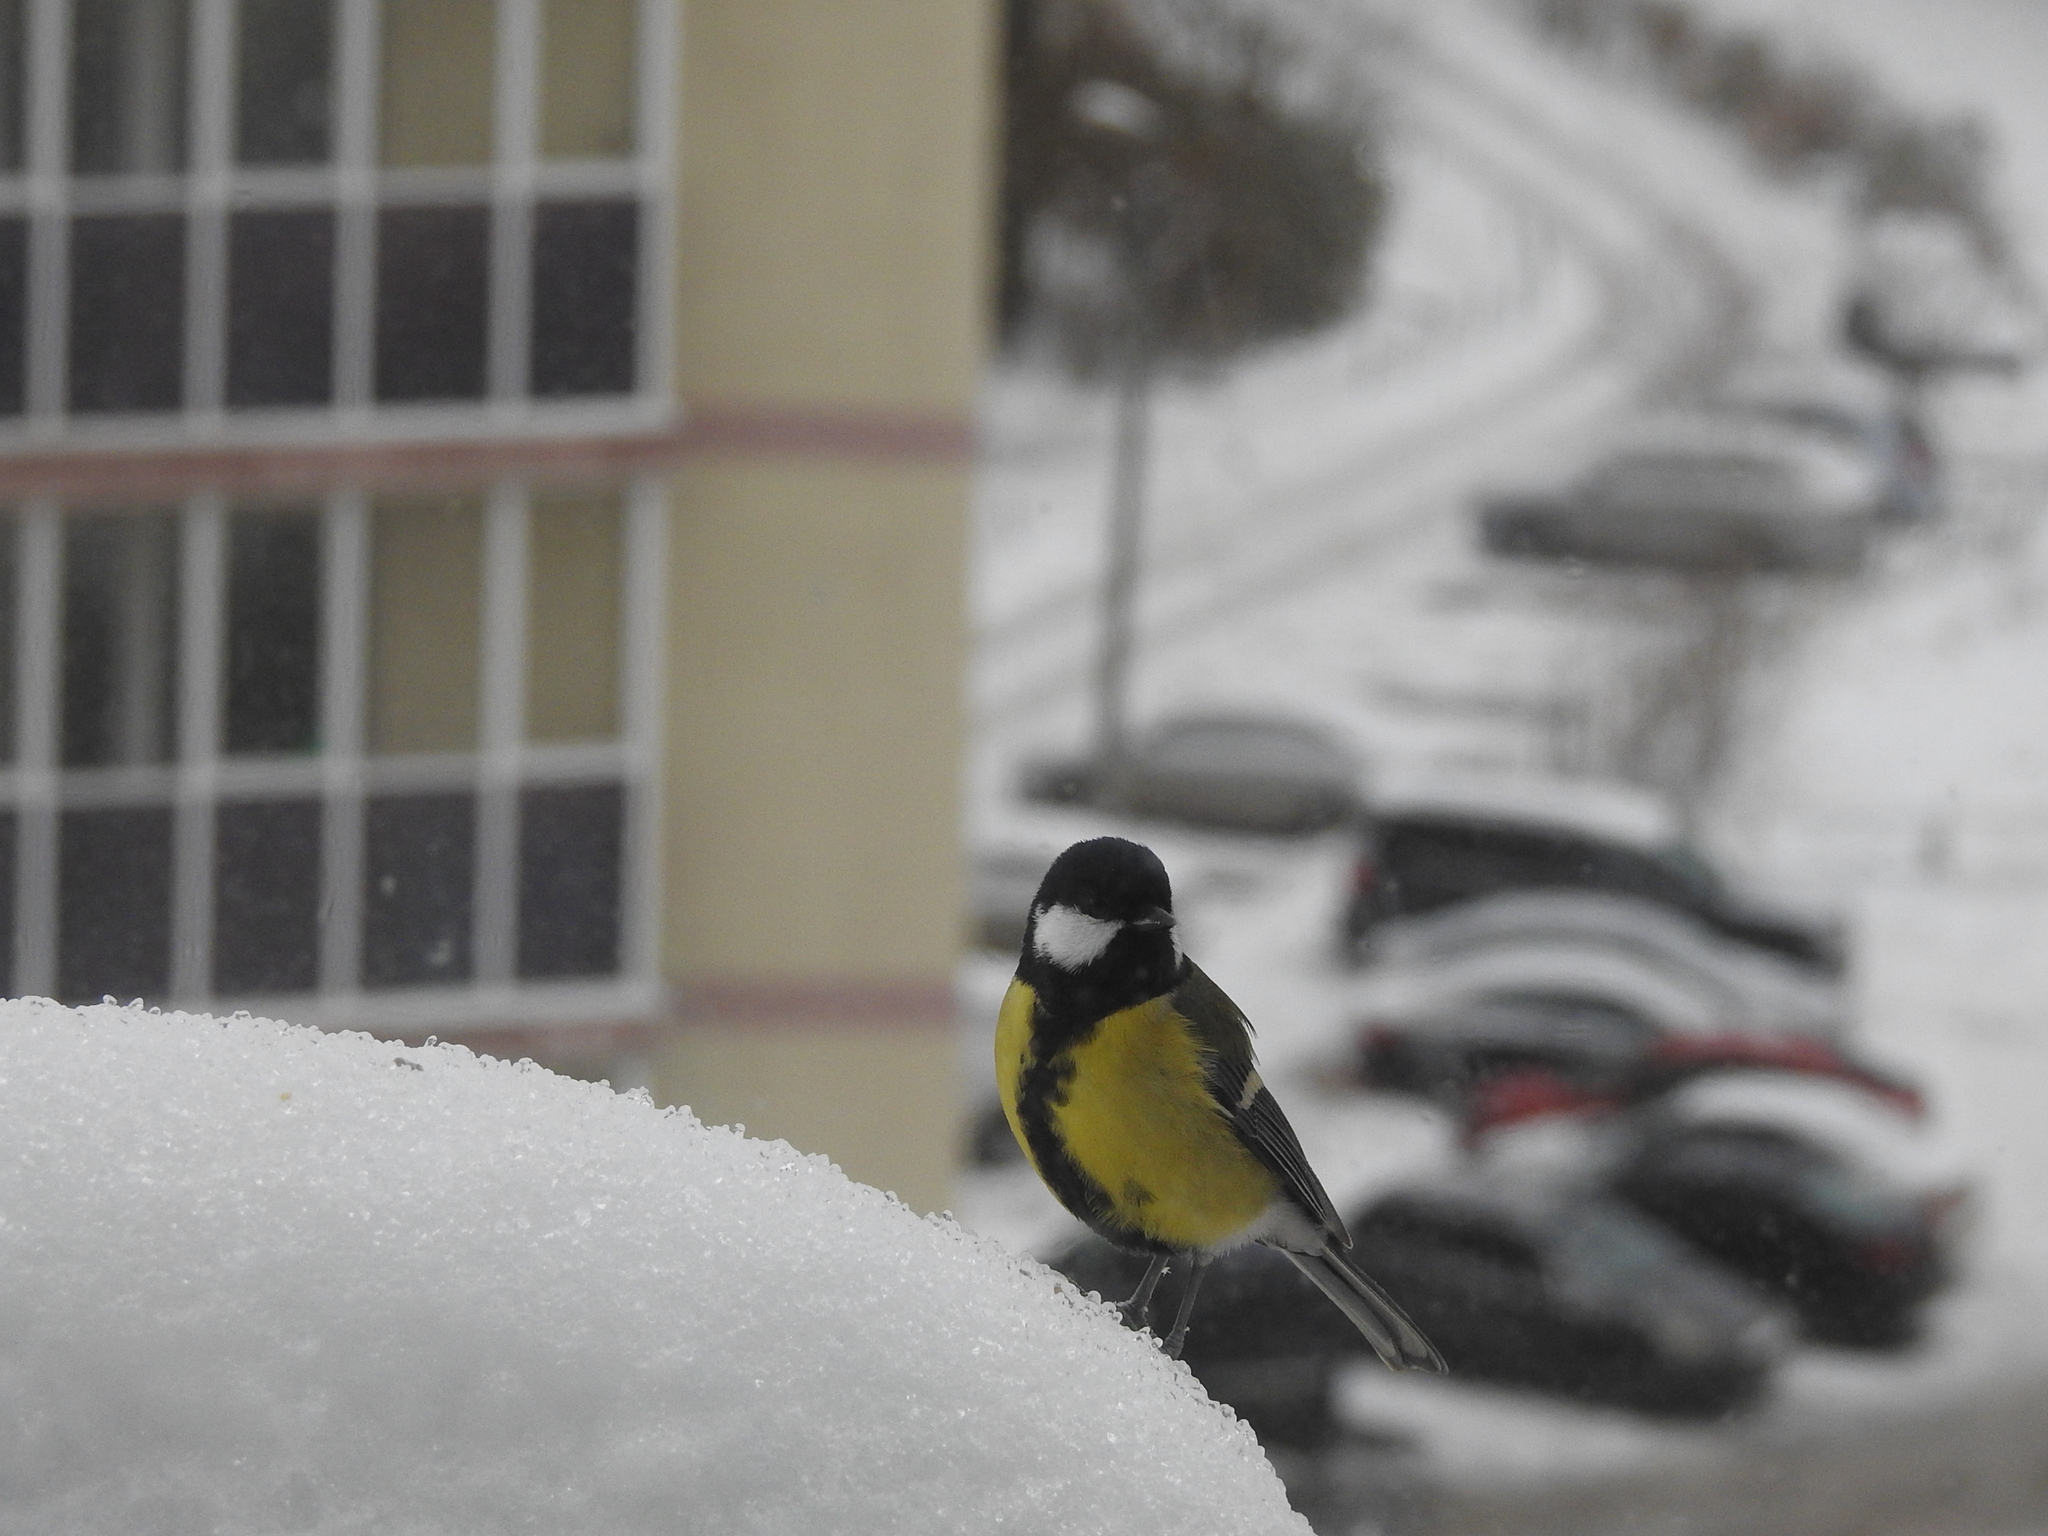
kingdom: Animalia
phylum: Chordata
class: Aves
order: Passeriformes
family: Paridae
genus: Parus
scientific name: Parus major
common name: Great tit
